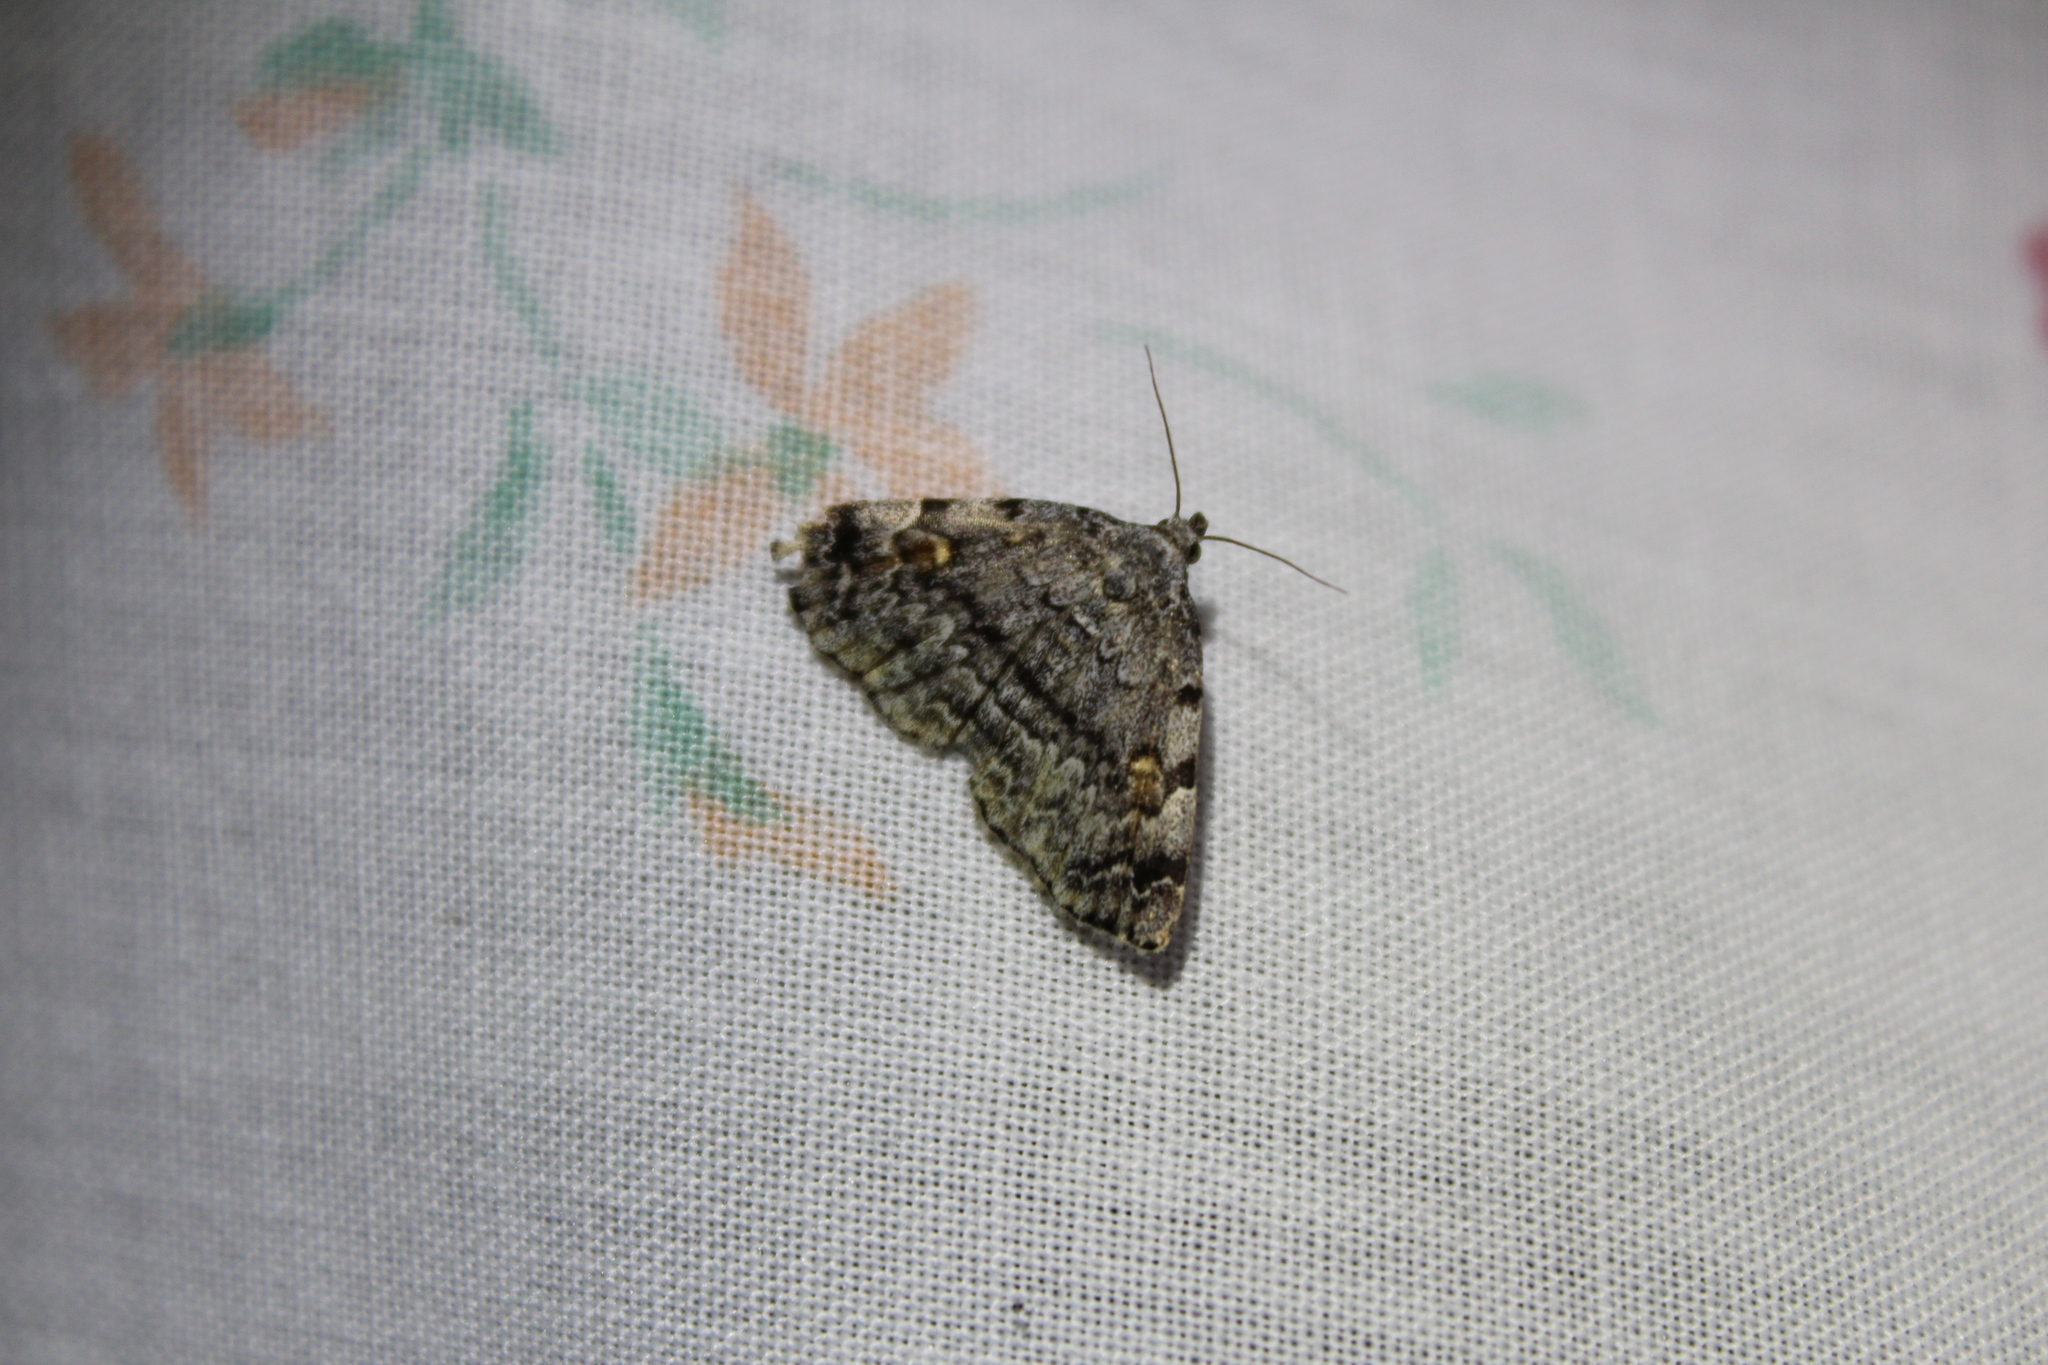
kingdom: Animalia
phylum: Arthropoda
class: Insecta
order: Lepidoptera
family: Erebidae
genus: Idia
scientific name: Idia americalis
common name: American idia moth
